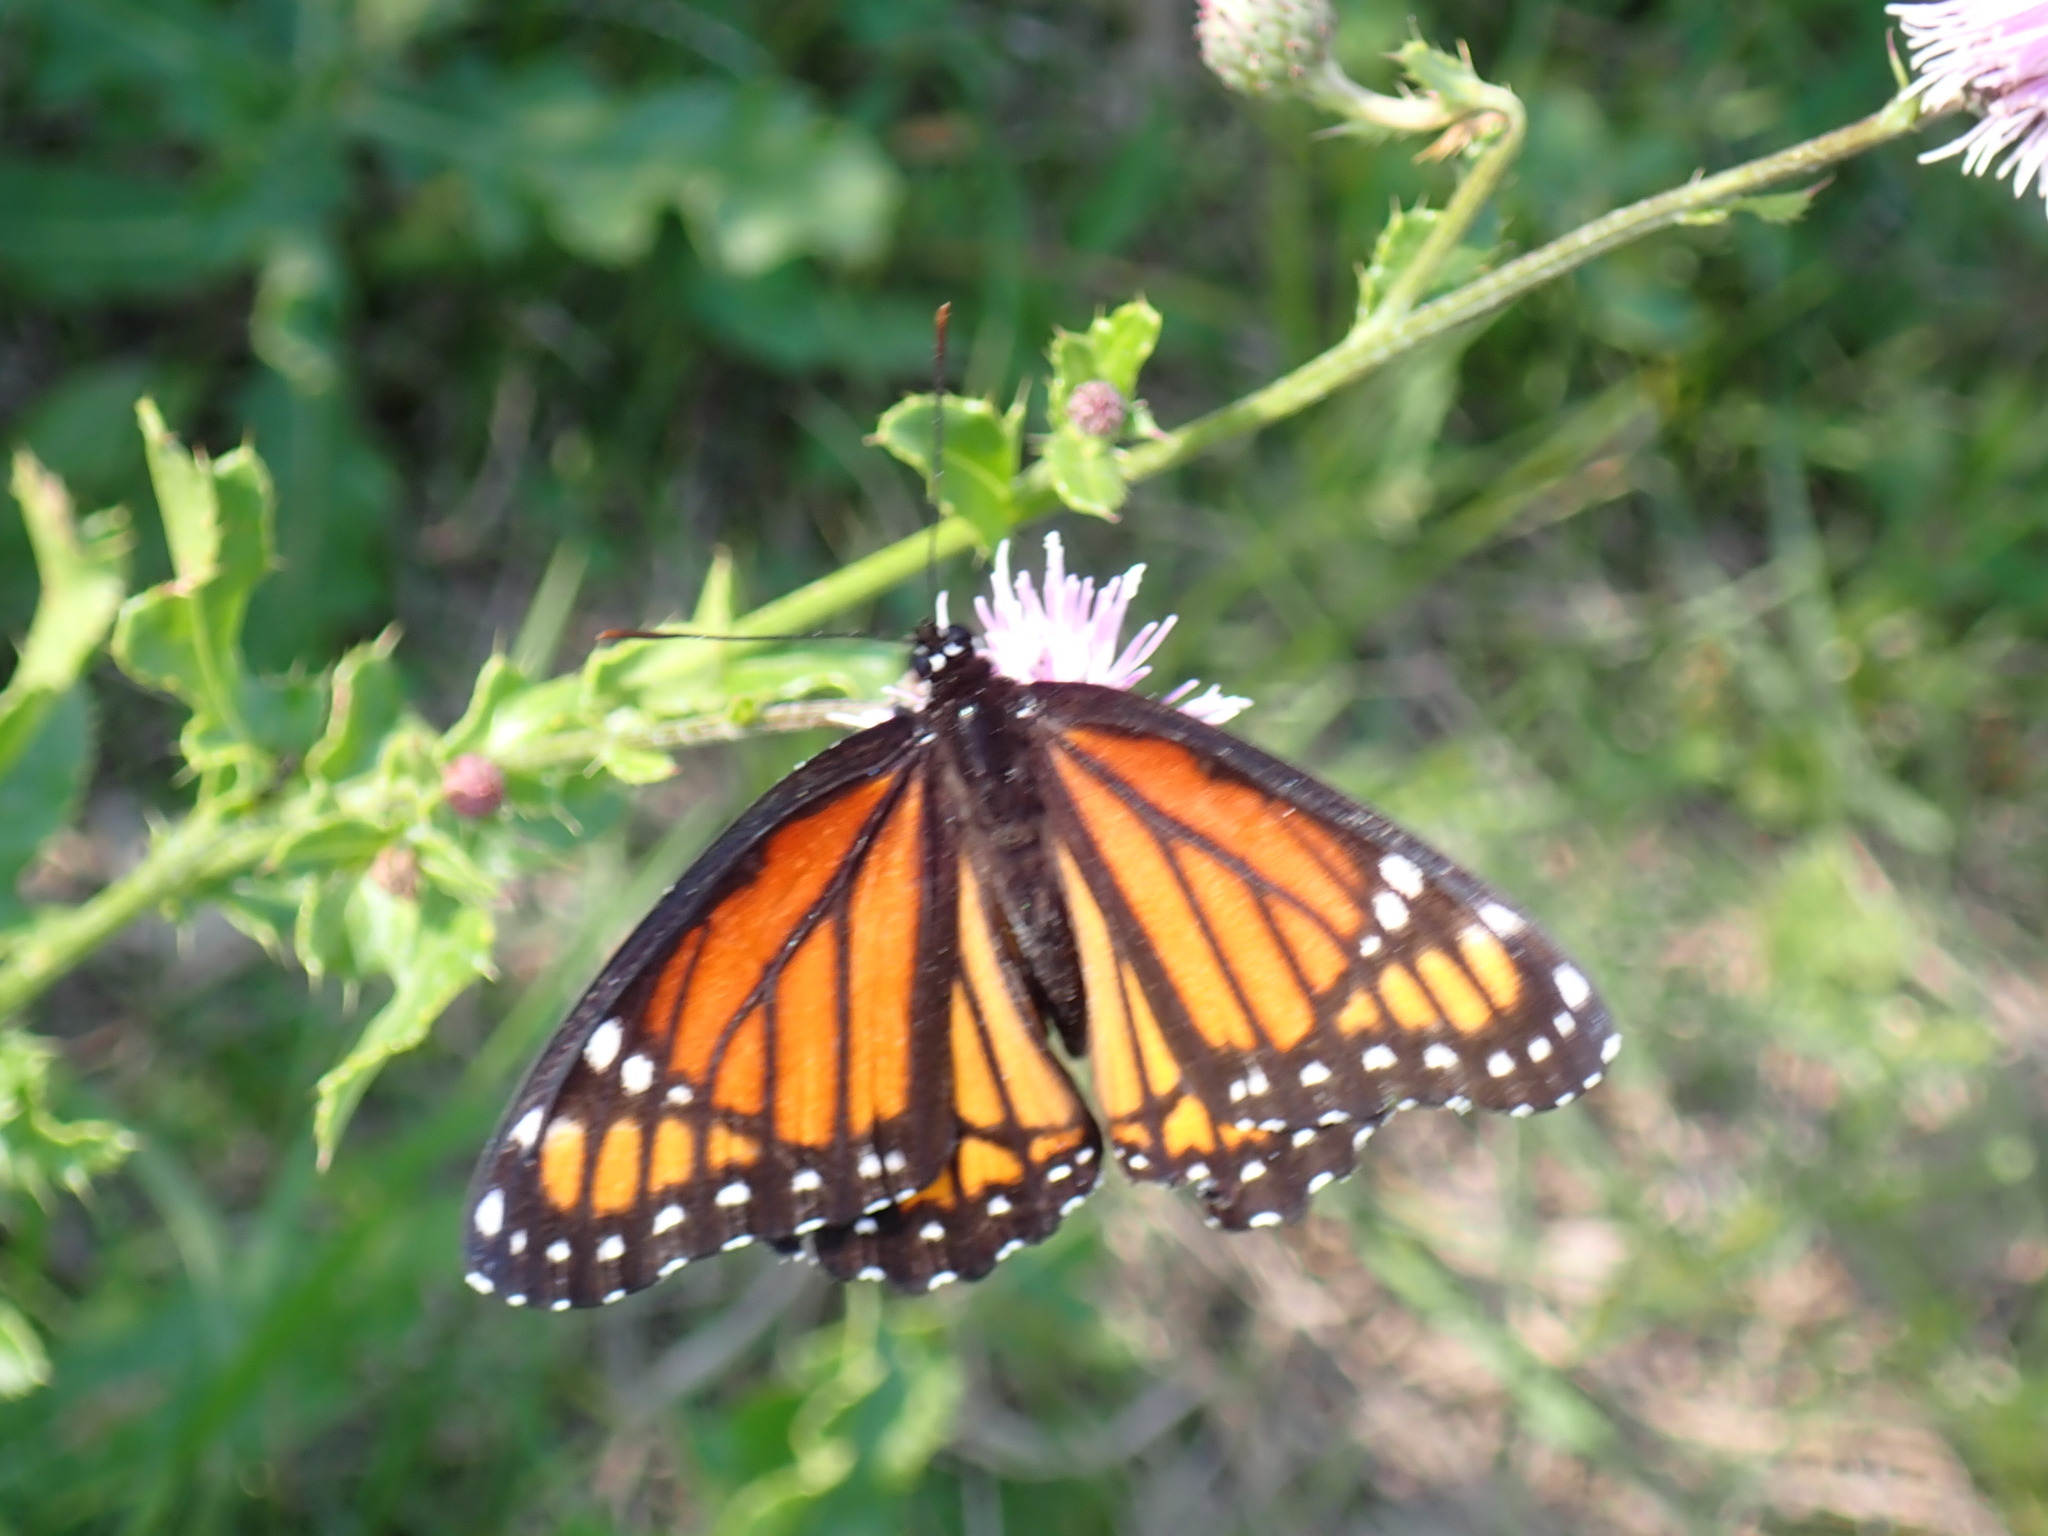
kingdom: Animalia
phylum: Arthropoda
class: Insecta
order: Lepidoptera
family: Nymphalidae
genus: Limenitis
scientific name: Limenitis archippus
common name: Viceroy
